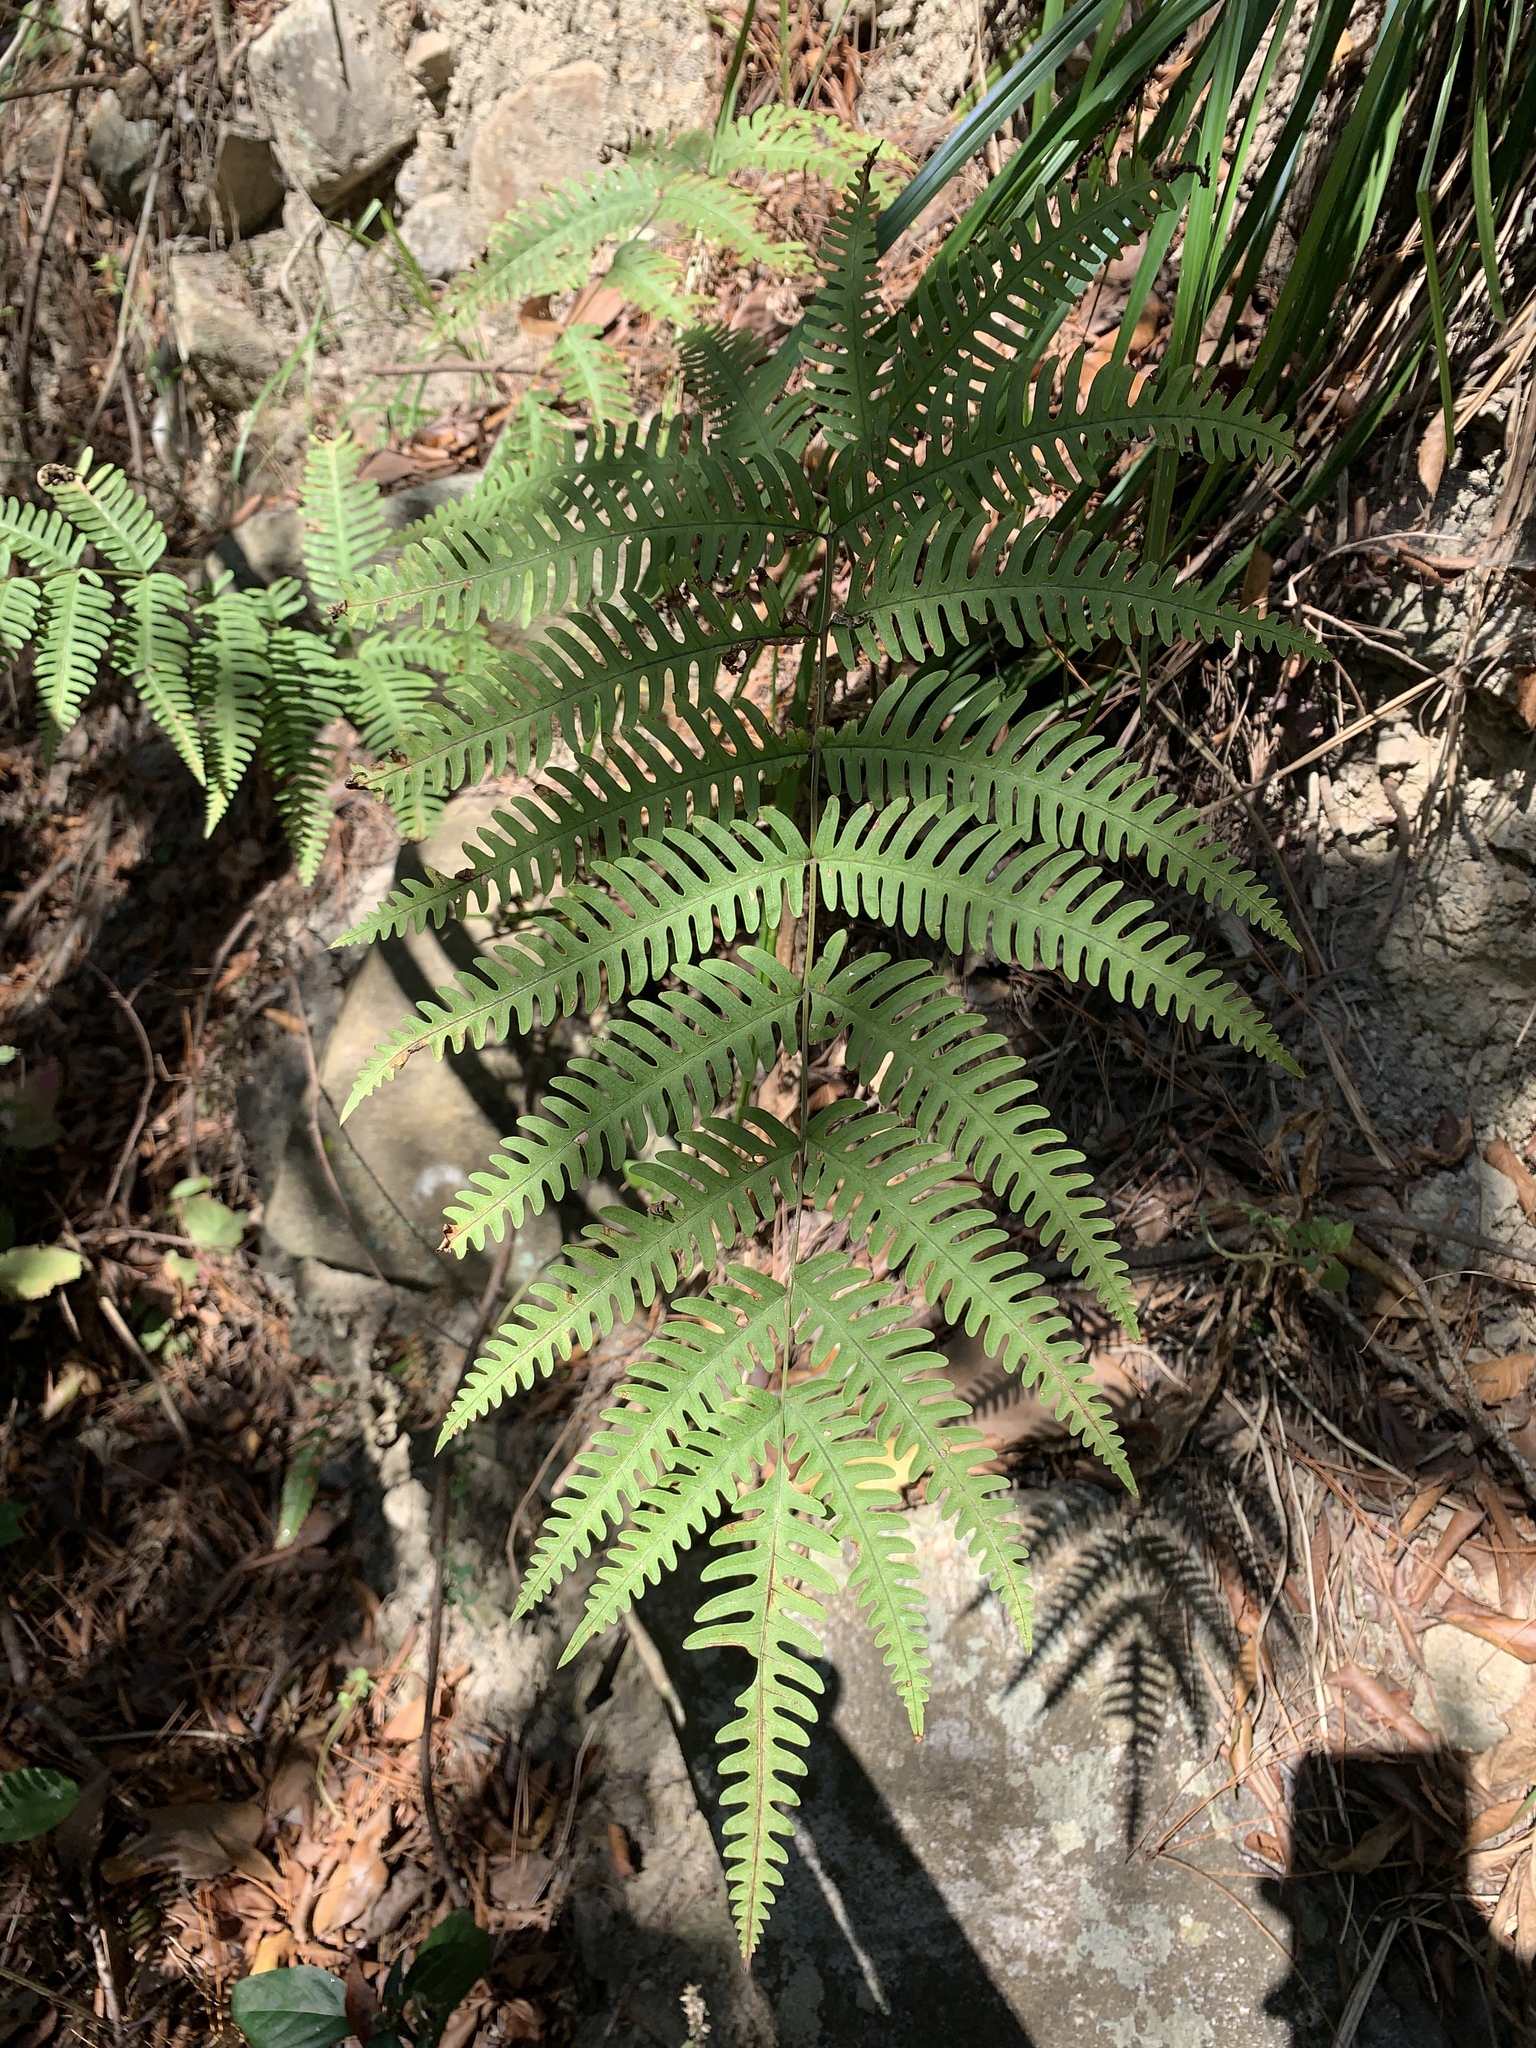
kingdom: Plantae
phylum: Tracheophyta
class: Polypodiopsida
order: Polypodiales
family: Pteridaceae
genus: Pteris
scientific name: Pteris biaurita
